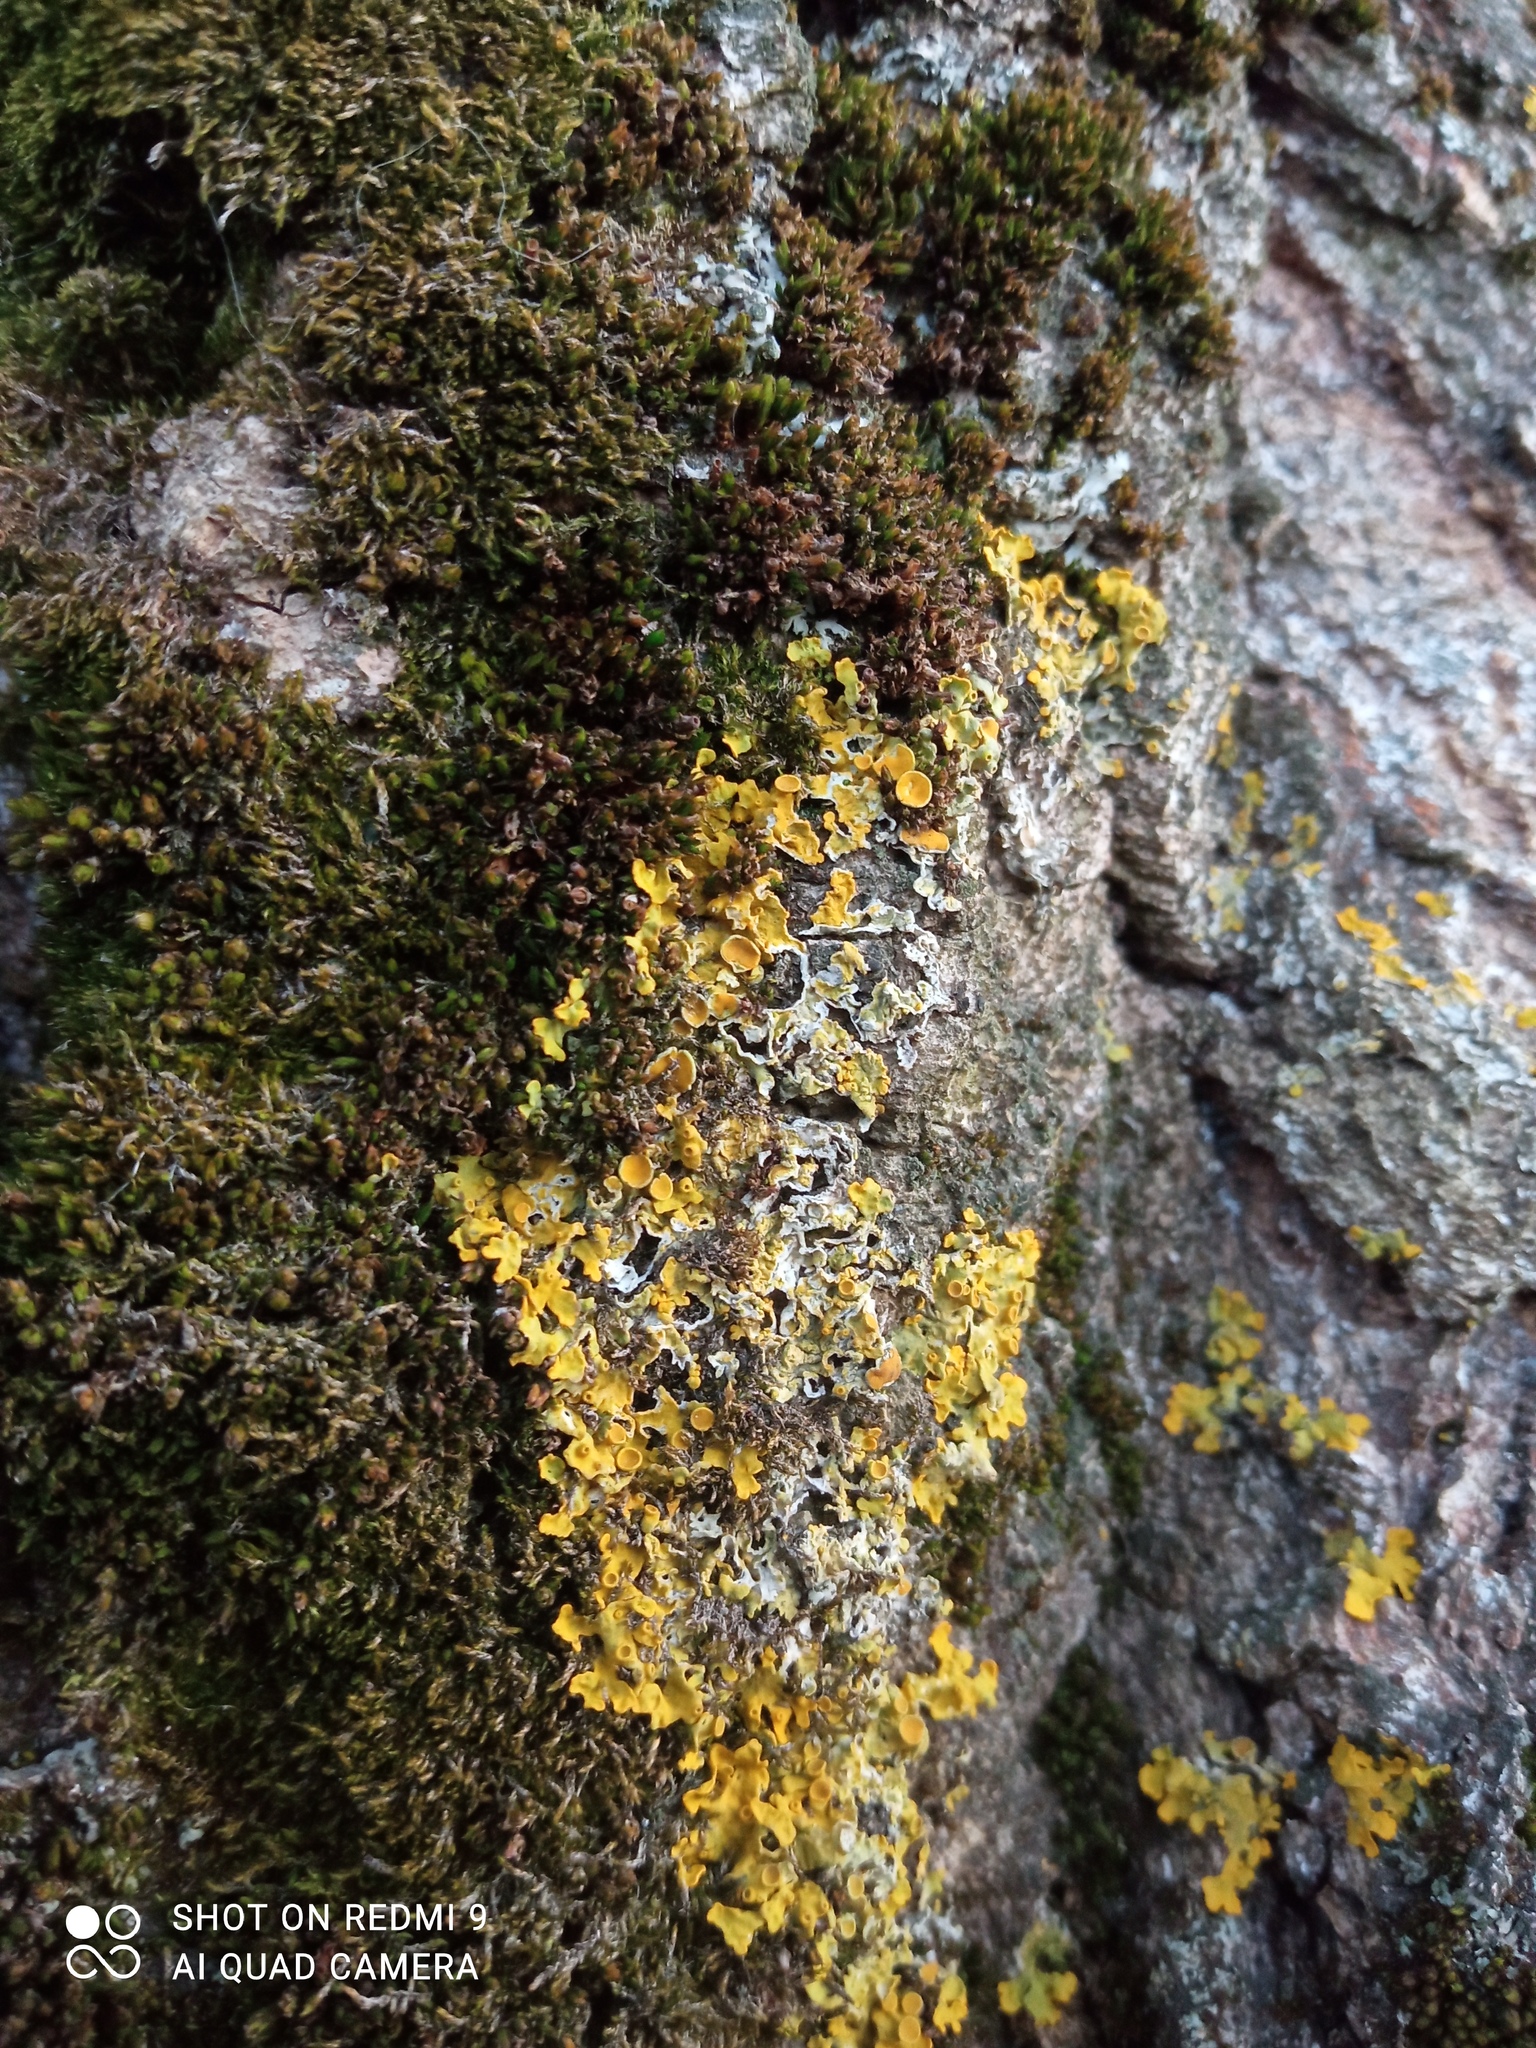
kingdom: Fungi
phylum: Ascomycota
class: Lecanoromycetes
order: Teloschistales
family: Teloschistaceae
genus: Xanthoria
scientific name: Xanthoria parietina
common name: Common orange lichen
